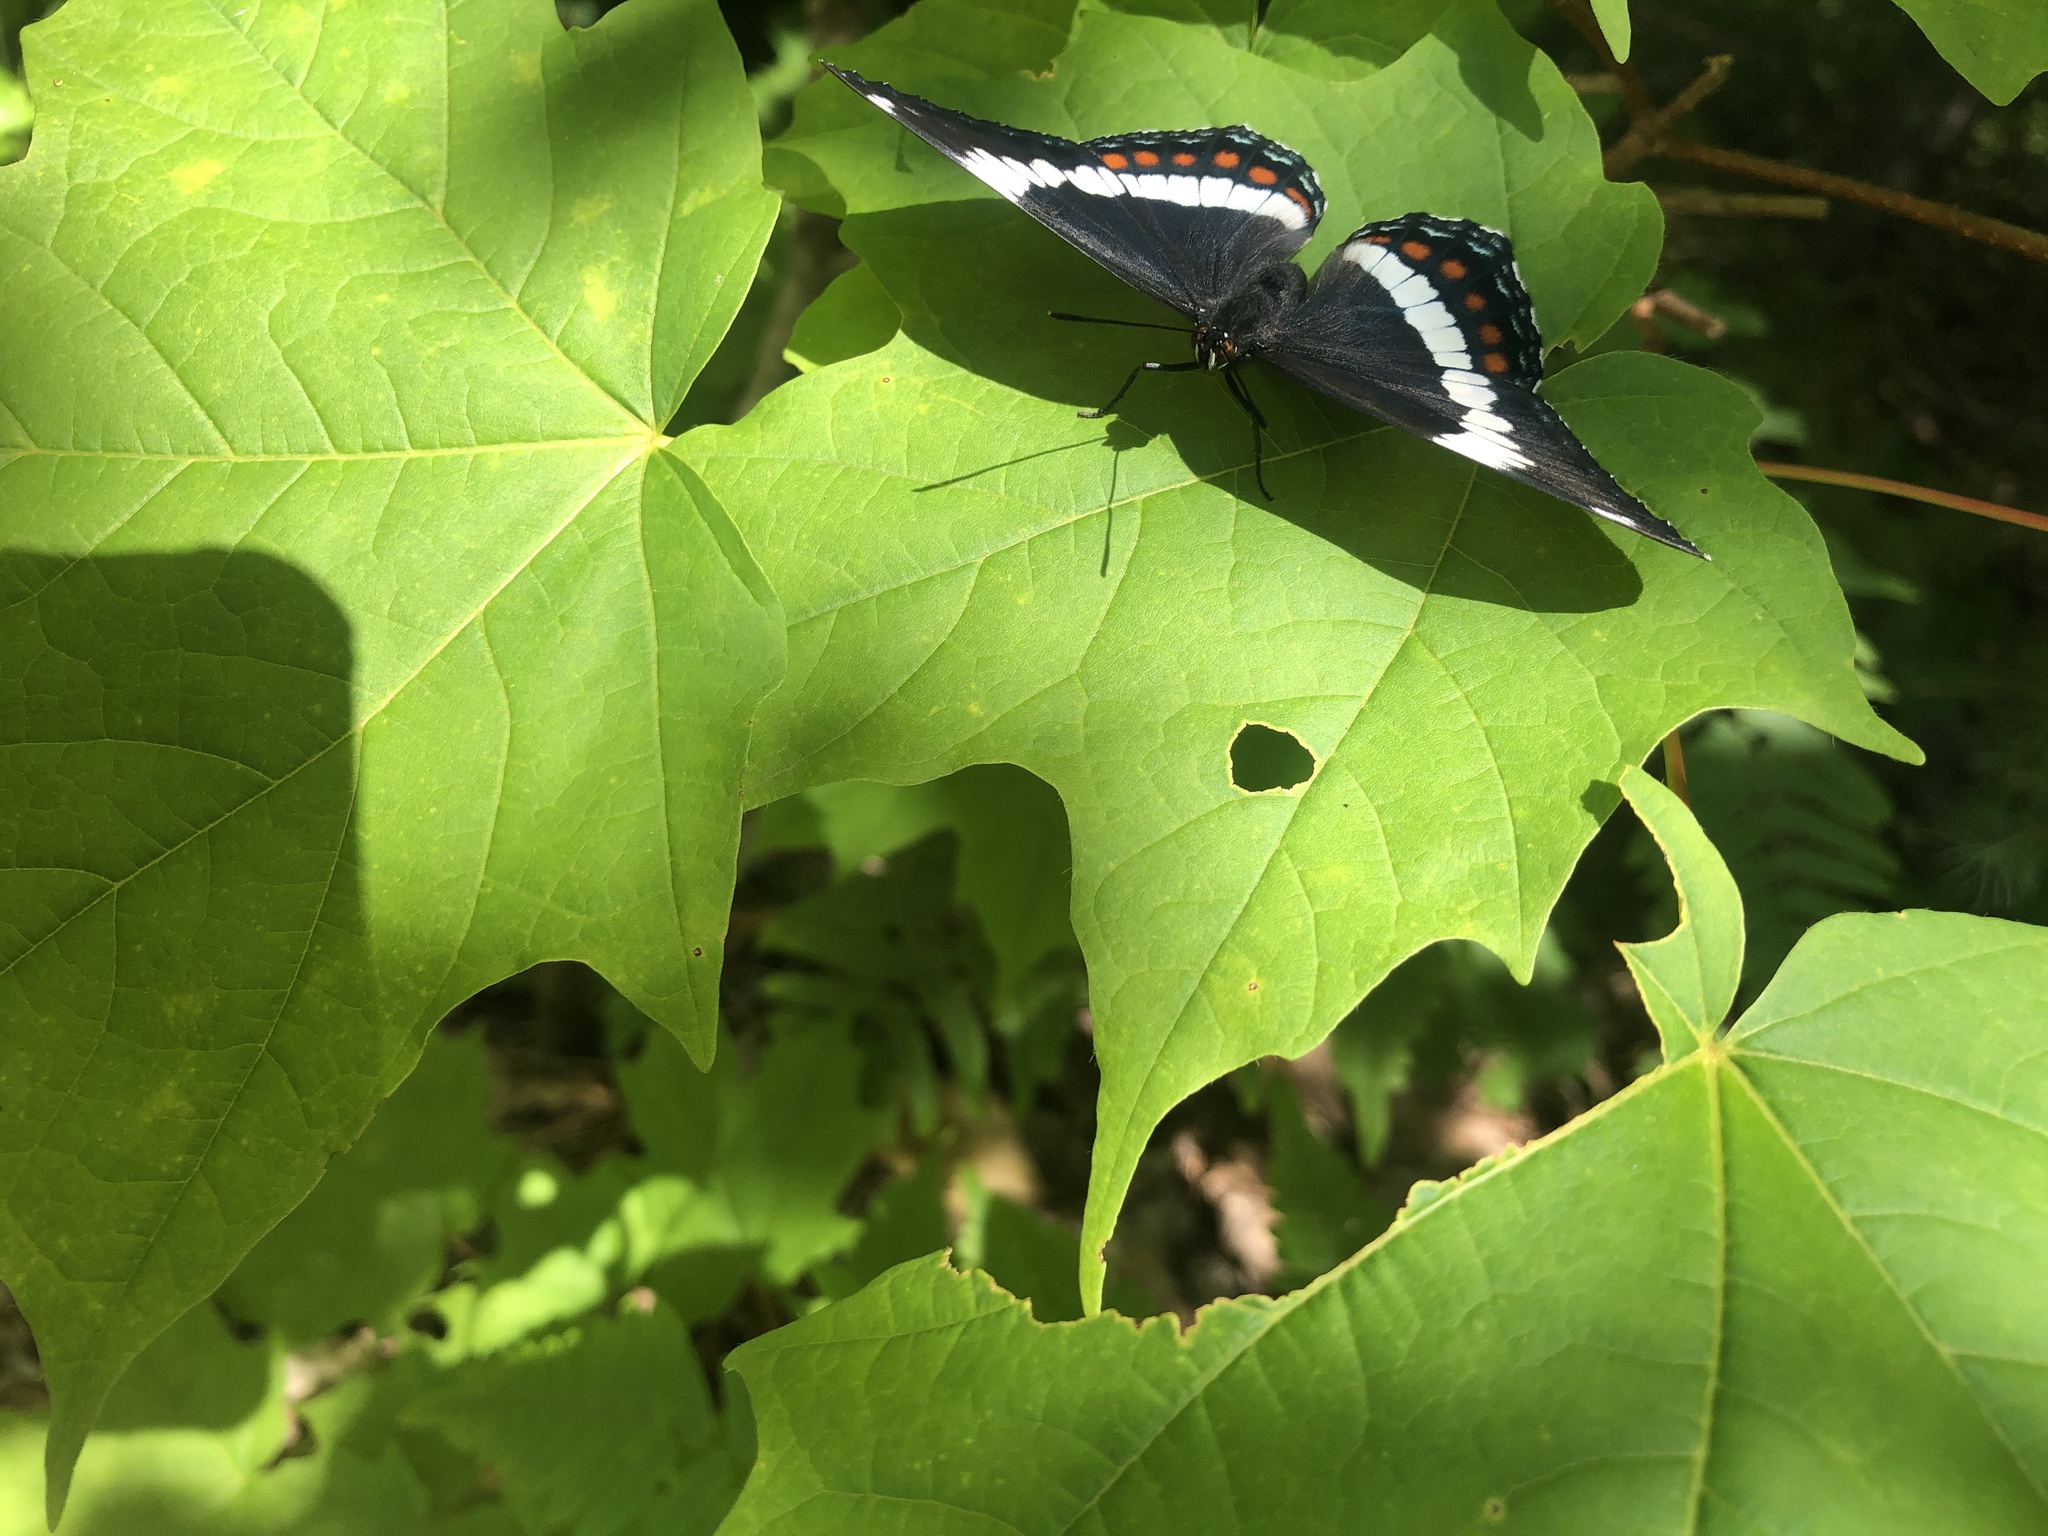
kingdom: Animalia
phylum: Arthropoda
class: Insecta
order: Lepidoptera
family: Nymphalidae
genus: Limenitis
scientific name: Limenitis arthemis
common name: Red-spotted admiral
